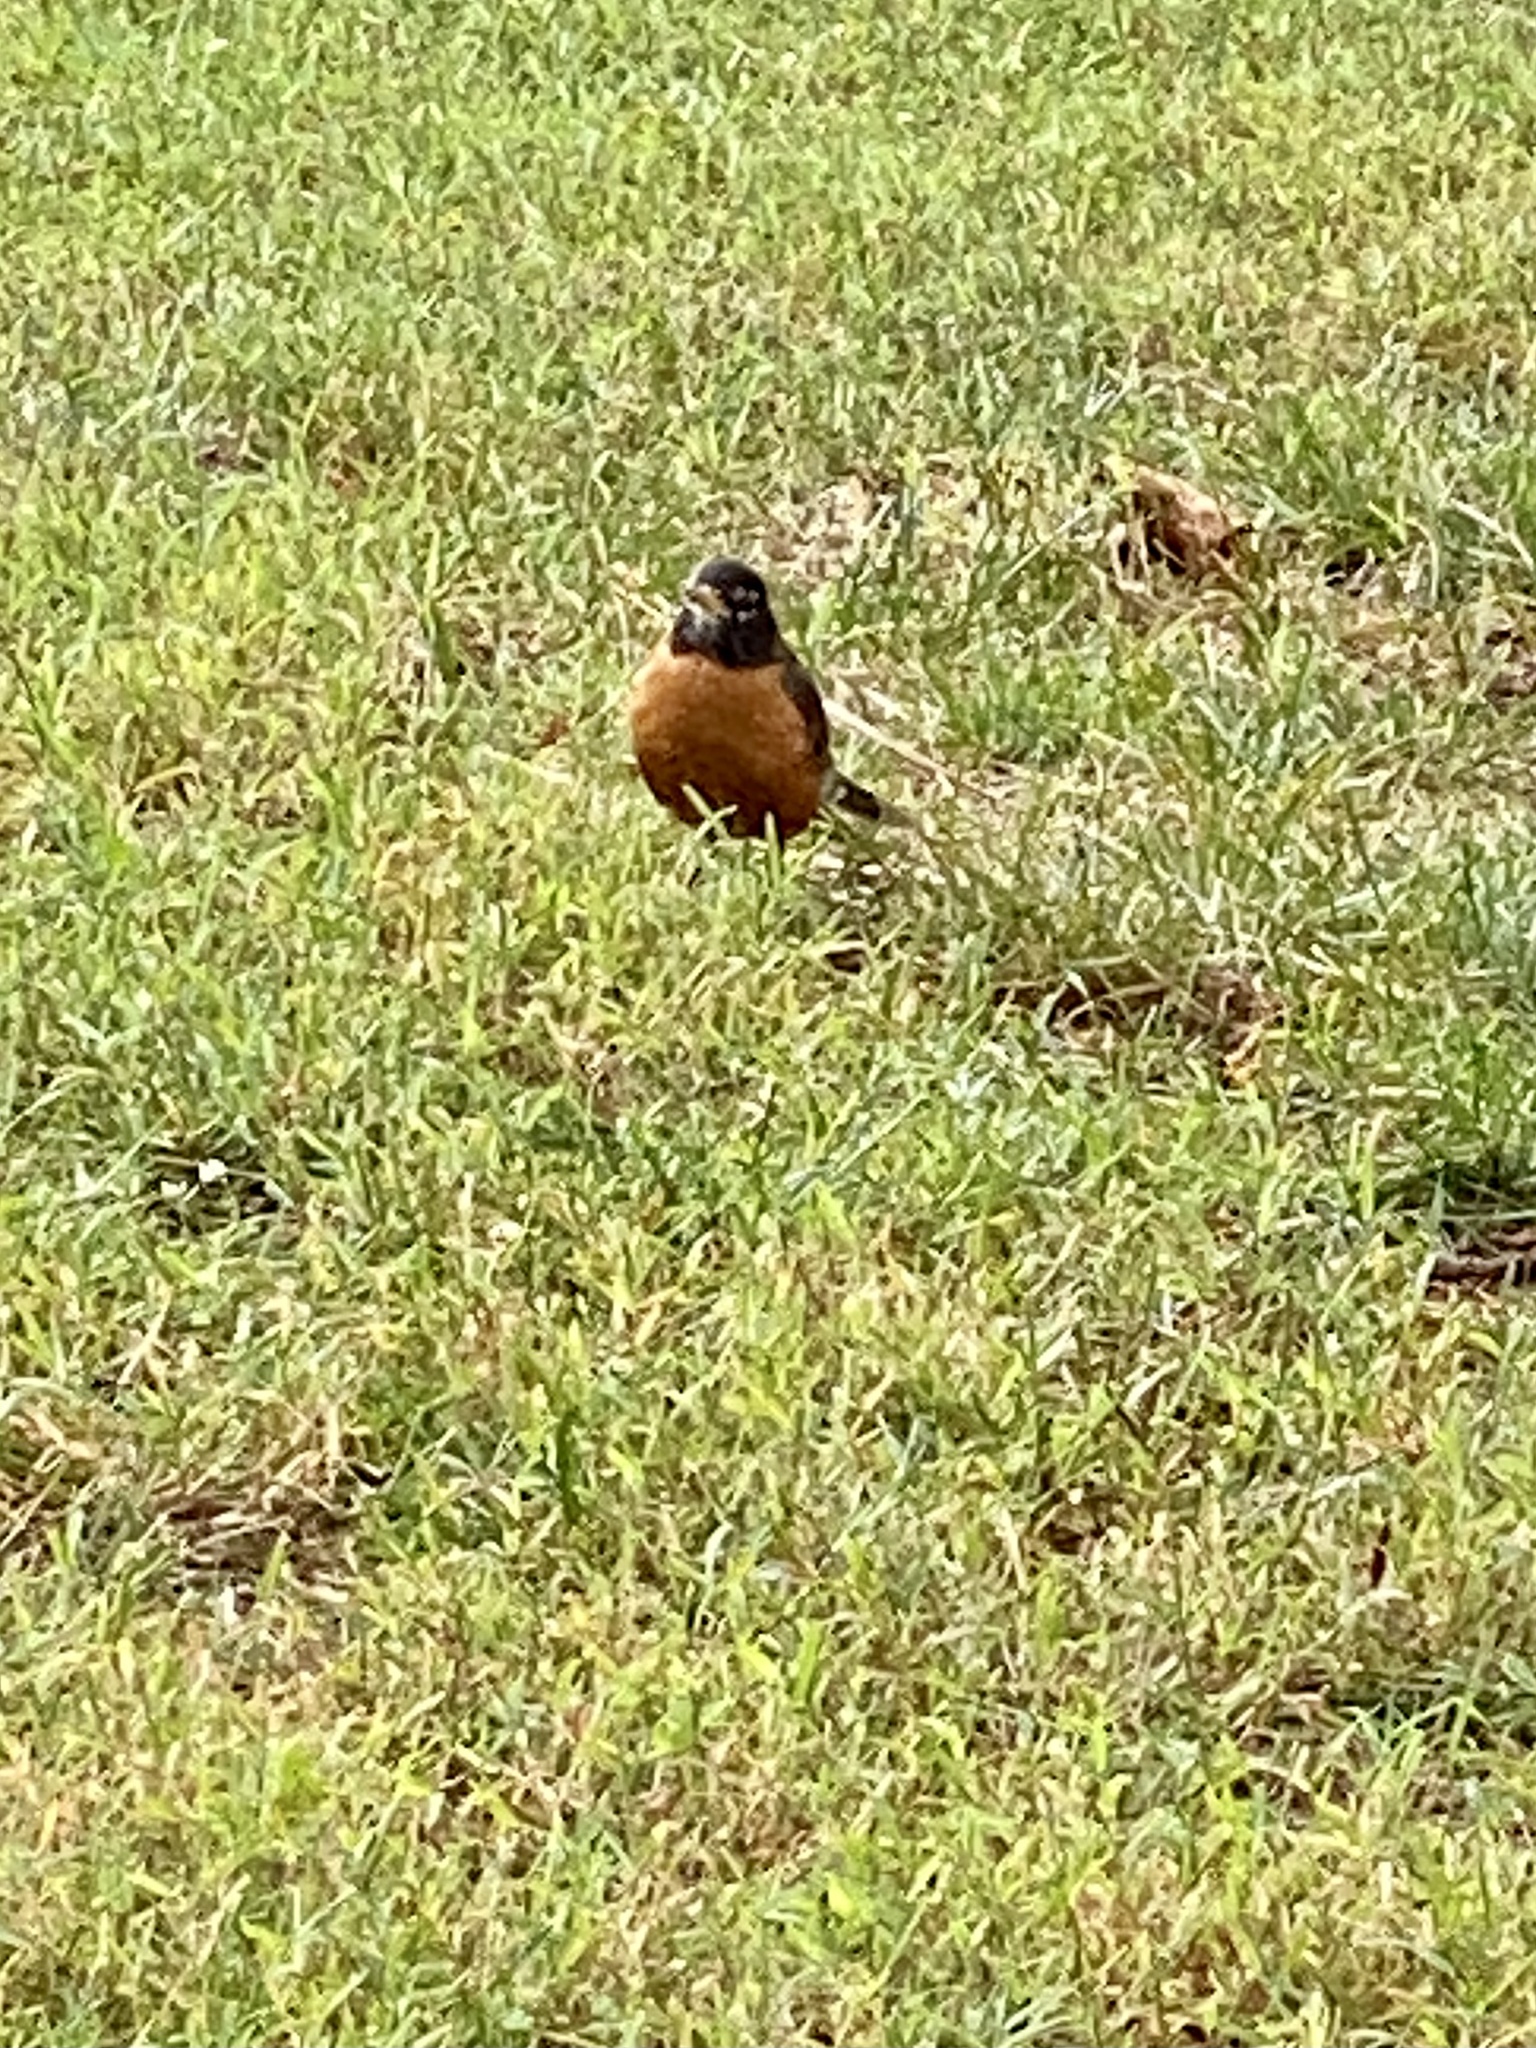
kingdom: Animalia
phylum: Chordata
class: Aves
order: Passeriformes
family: Turdidae
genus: Turdus
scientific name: Turdus migratorius
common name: American robin
